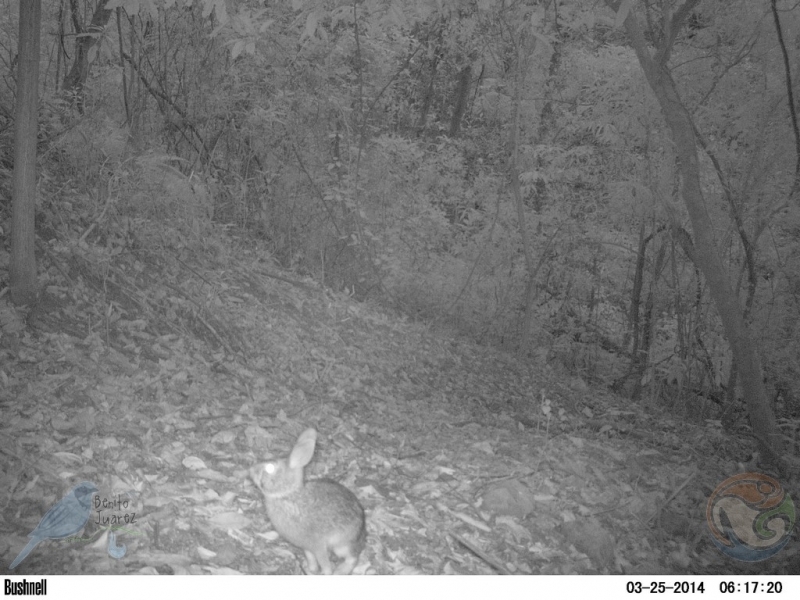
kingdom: Animalia
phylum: Chordata
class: Mammalia
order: Lagomorpha
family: Leporidae
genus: Sylvilagus
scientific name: Sylvilagus floridanus
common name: Eastern cottontail
